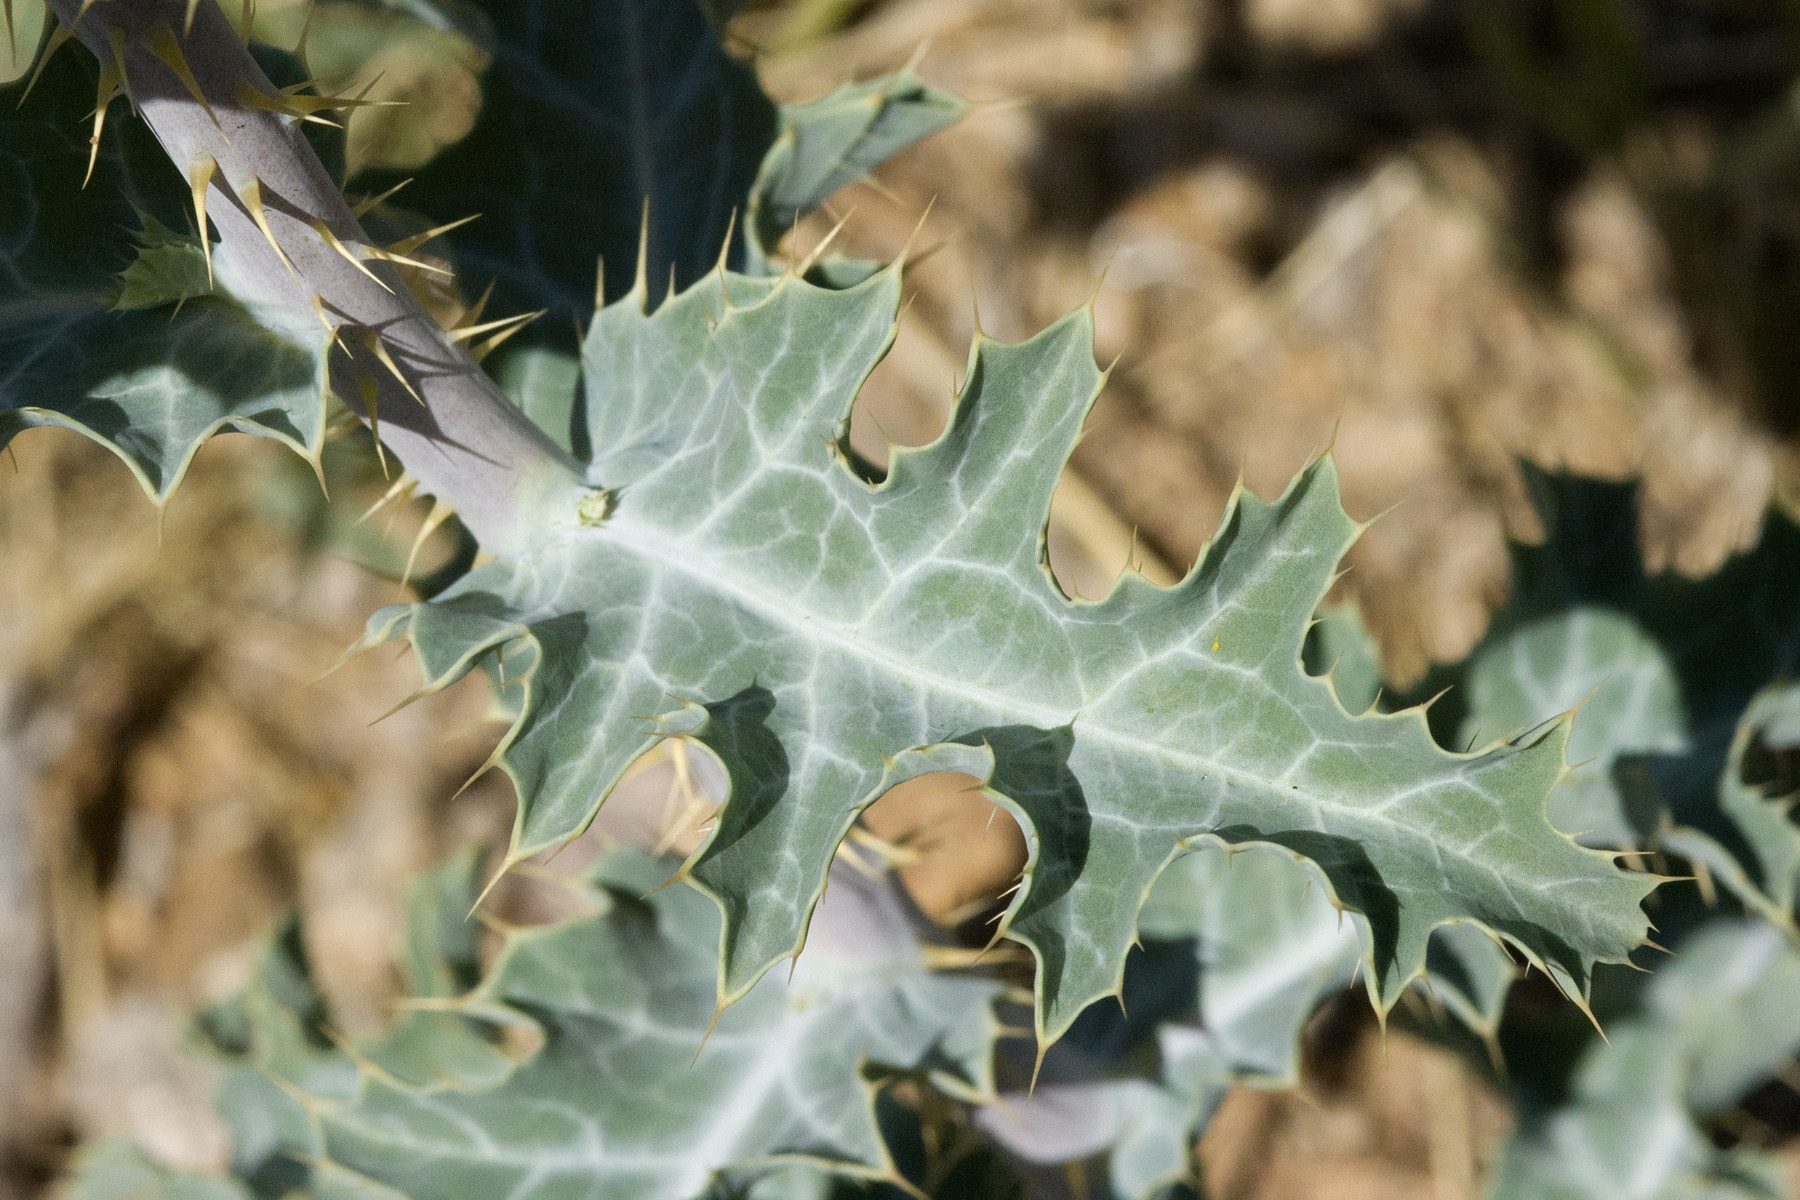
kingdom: Plantae
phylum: Tracheophyta
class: Magnoliopsida
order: Ranunculales
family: Papaveraceae
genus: Argemone
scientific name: Argemone polyanthemos
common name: Plains prickly-poppy
